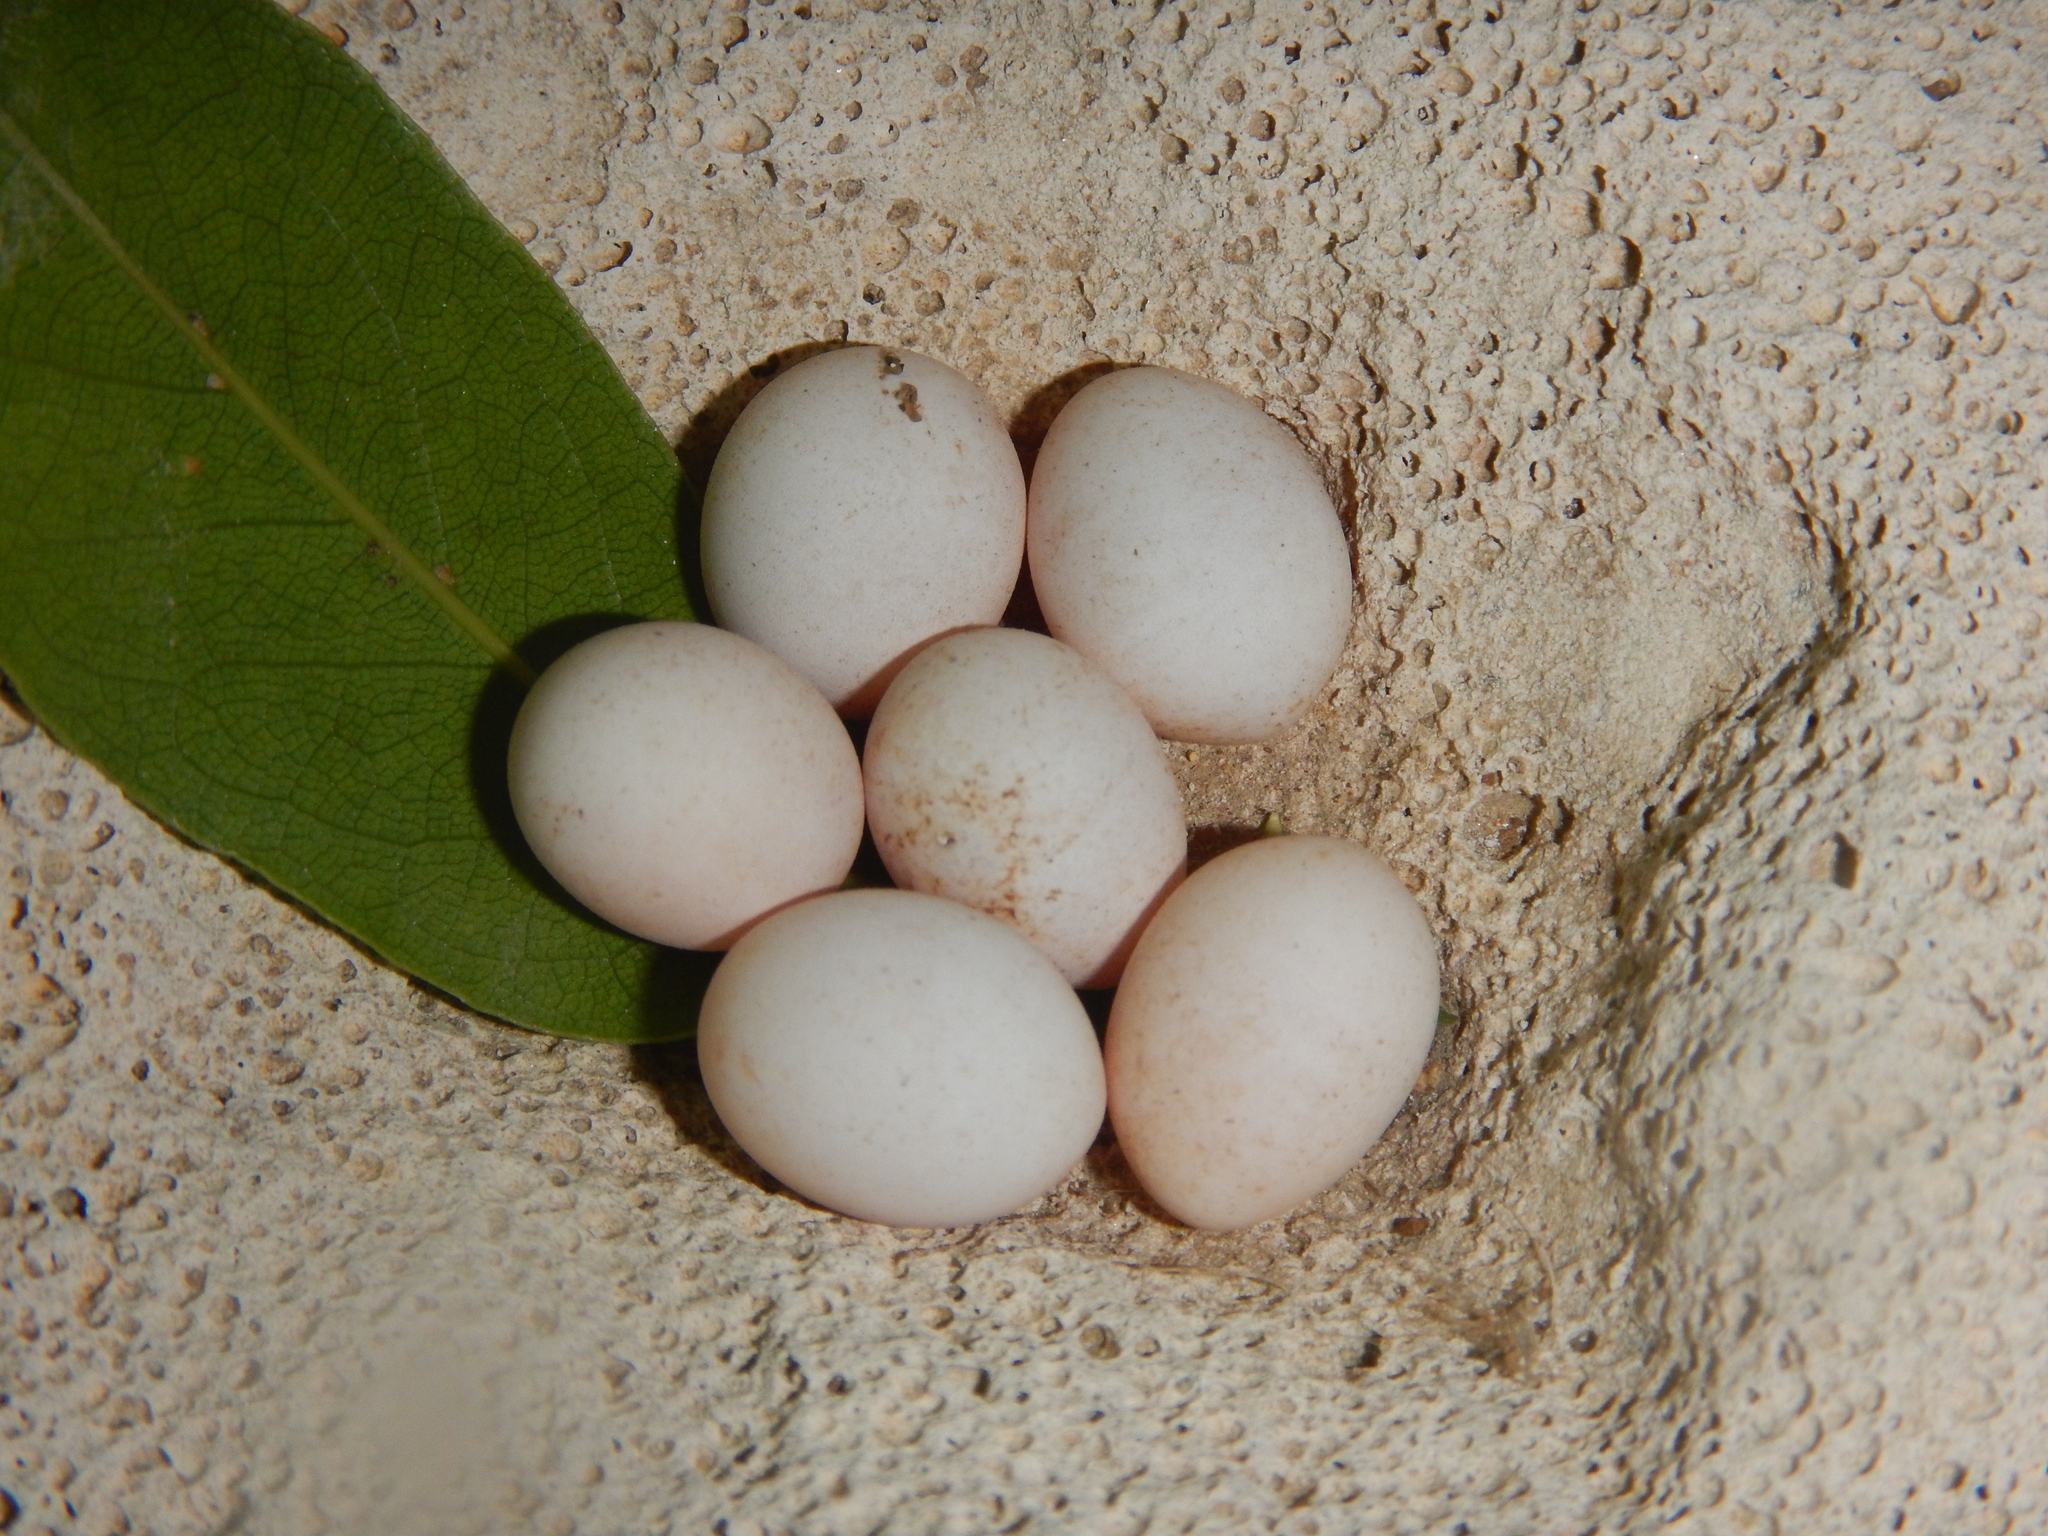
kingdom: Animalia
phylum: Chordata
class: Testudines
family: Testudinidae
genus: Testudo
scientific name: Testudo
